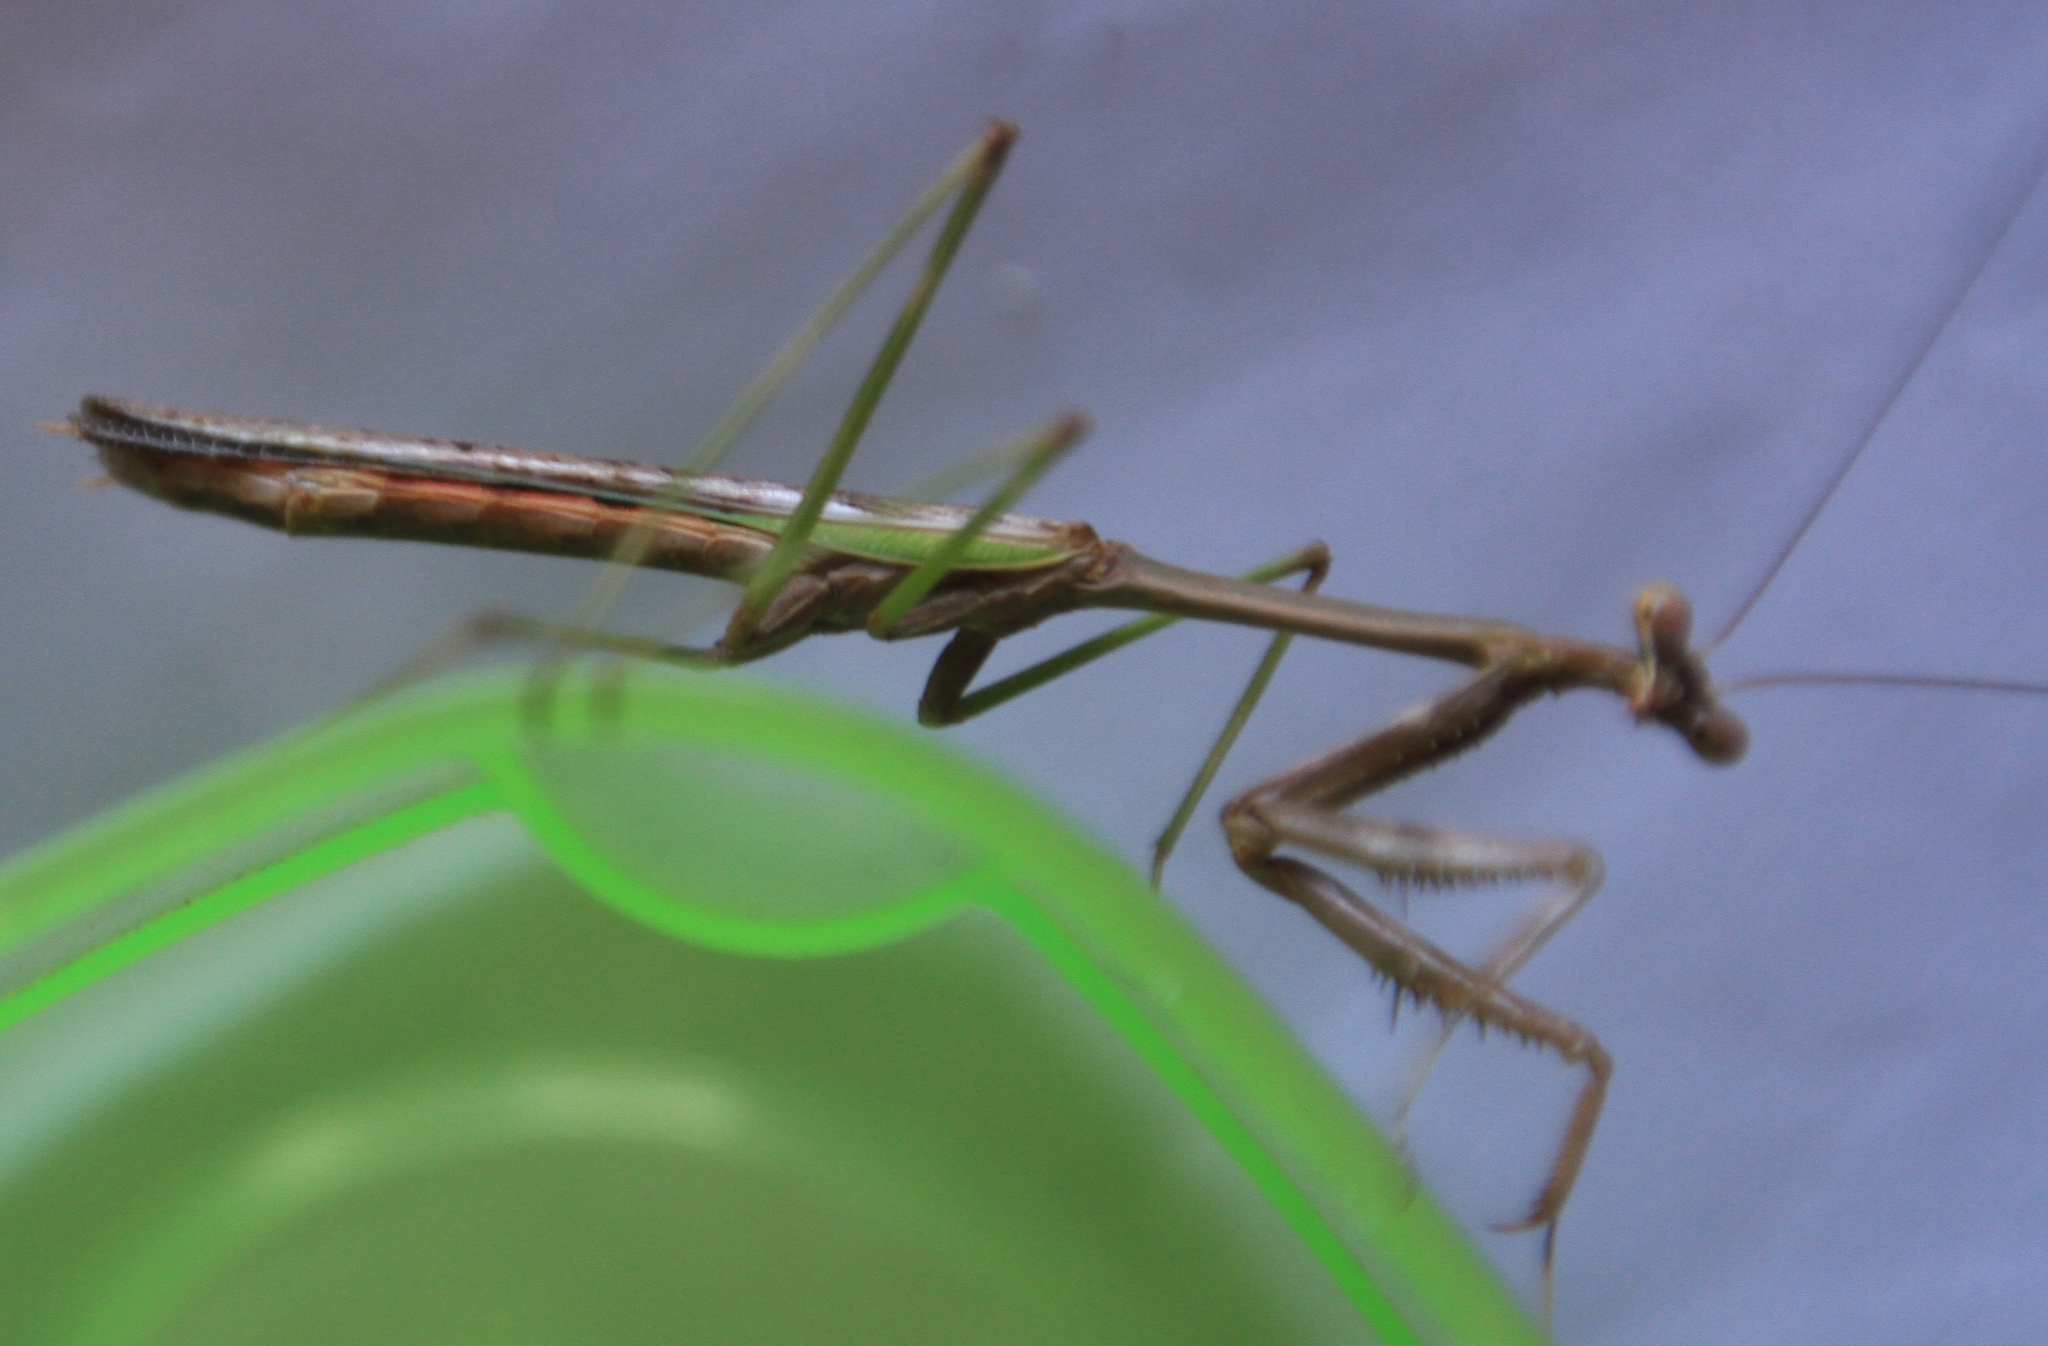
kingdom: Animalia
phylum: Arthropoda
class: Insecta
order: Mantodea
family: Mantidae
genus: Stagmomantis
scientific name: Stagmomantis domingensis
